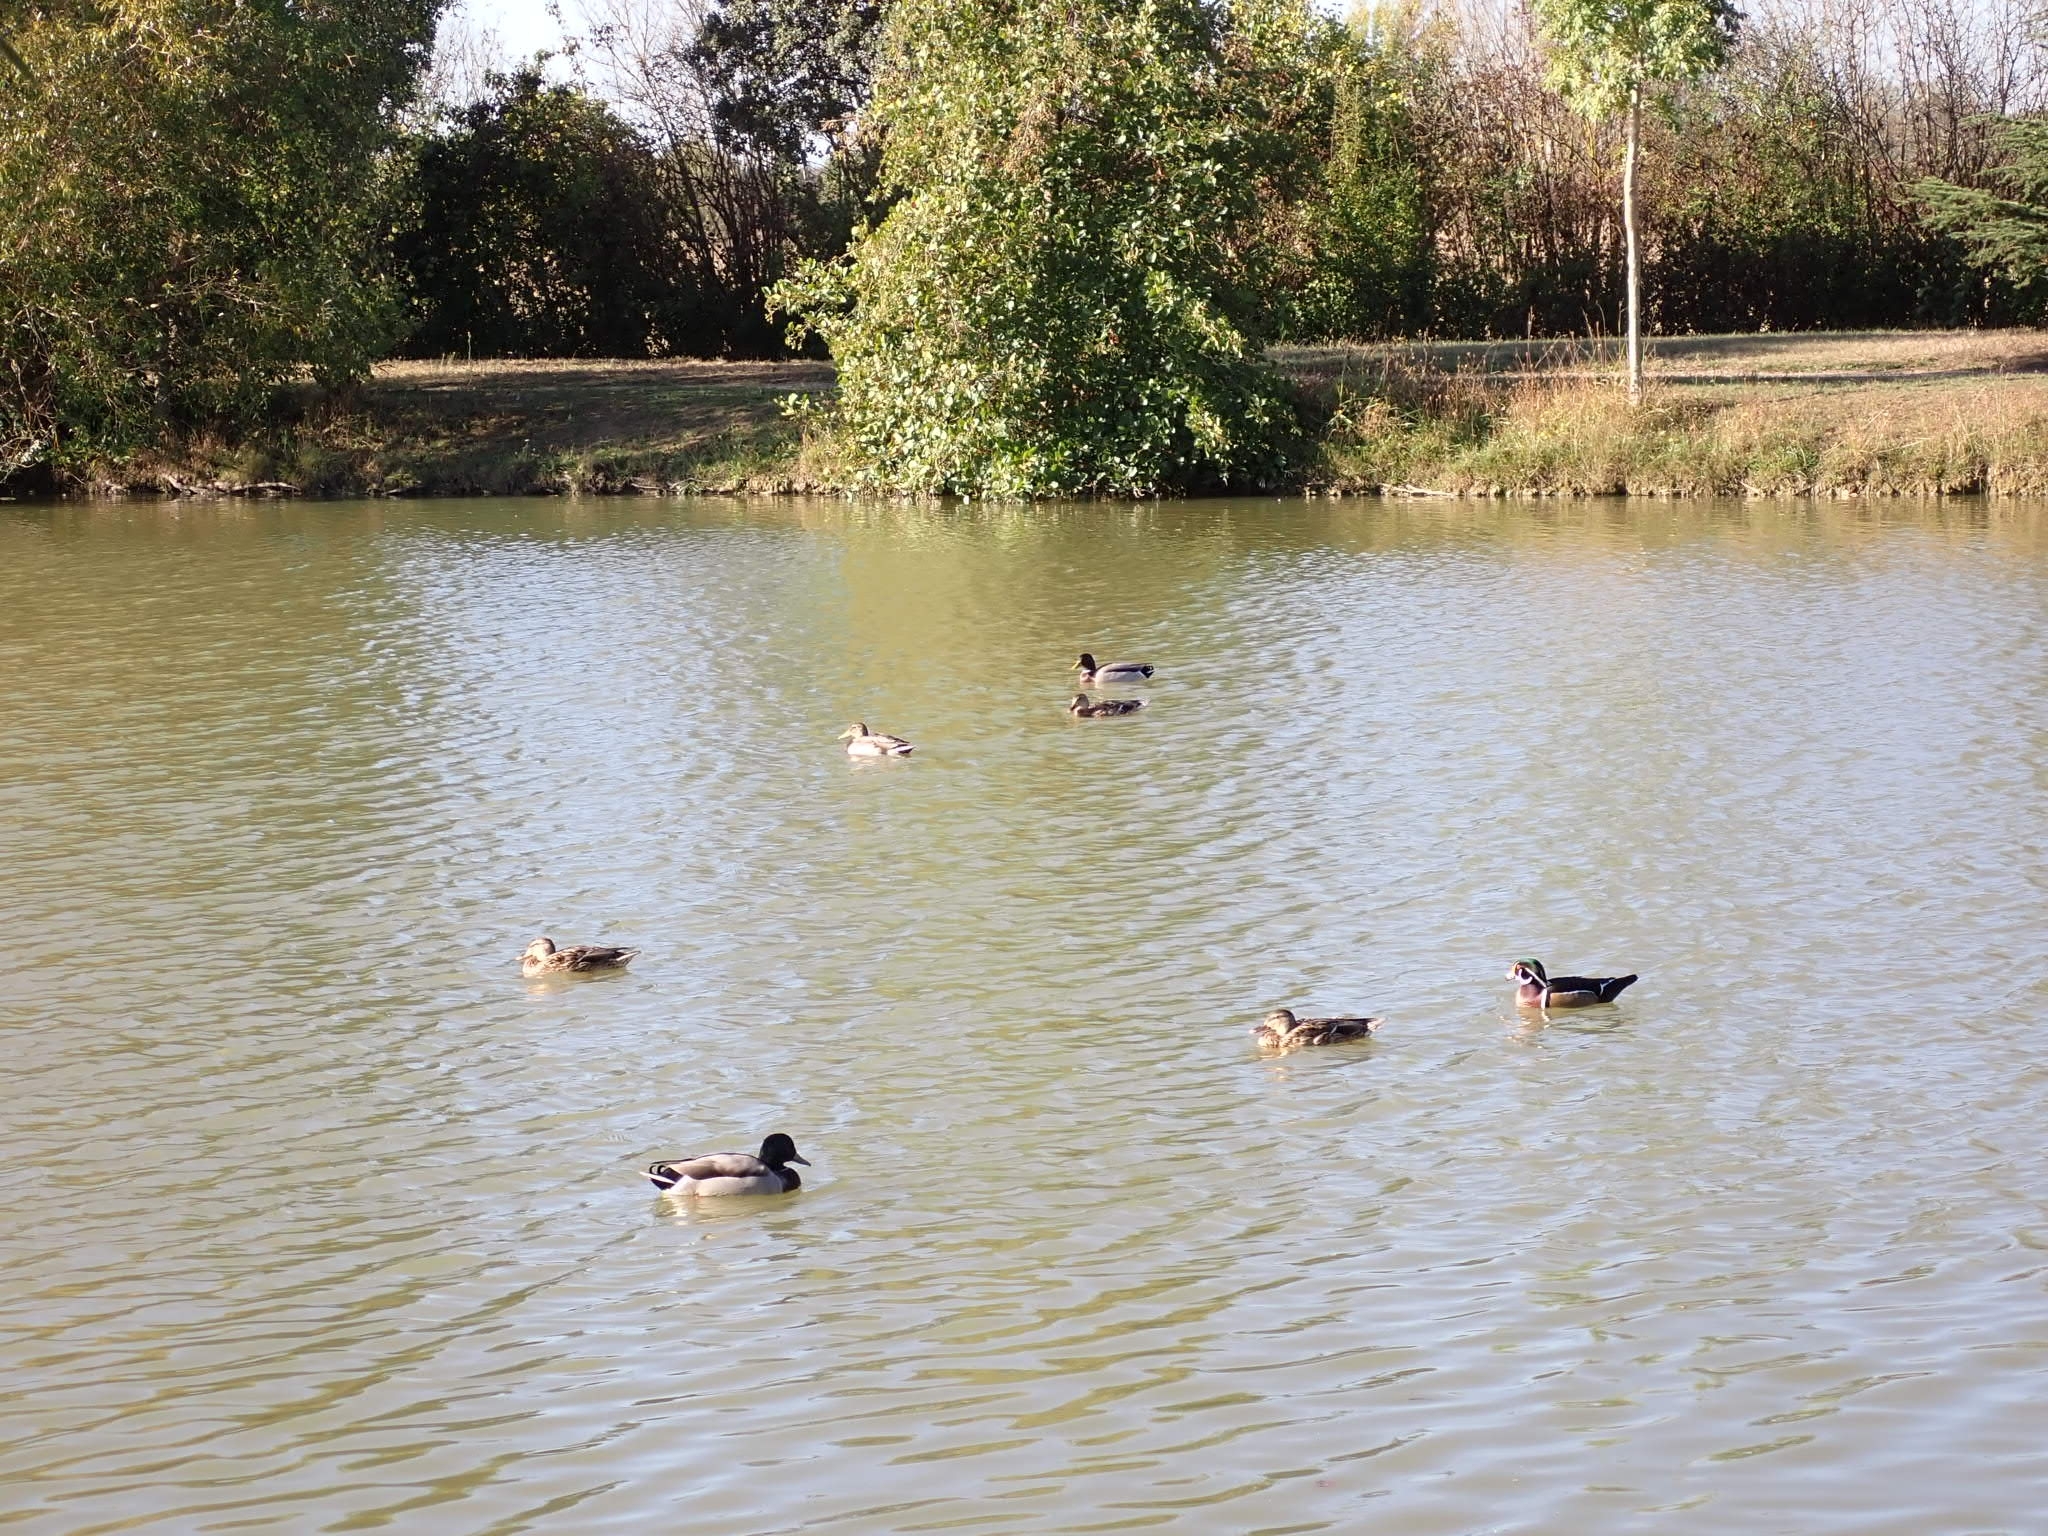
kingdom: Animalia
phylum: Chordata
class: Aves
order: Anseriformes
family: Anatidae
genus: Anas
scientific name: Anas platyrhynchos
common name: Mallard
